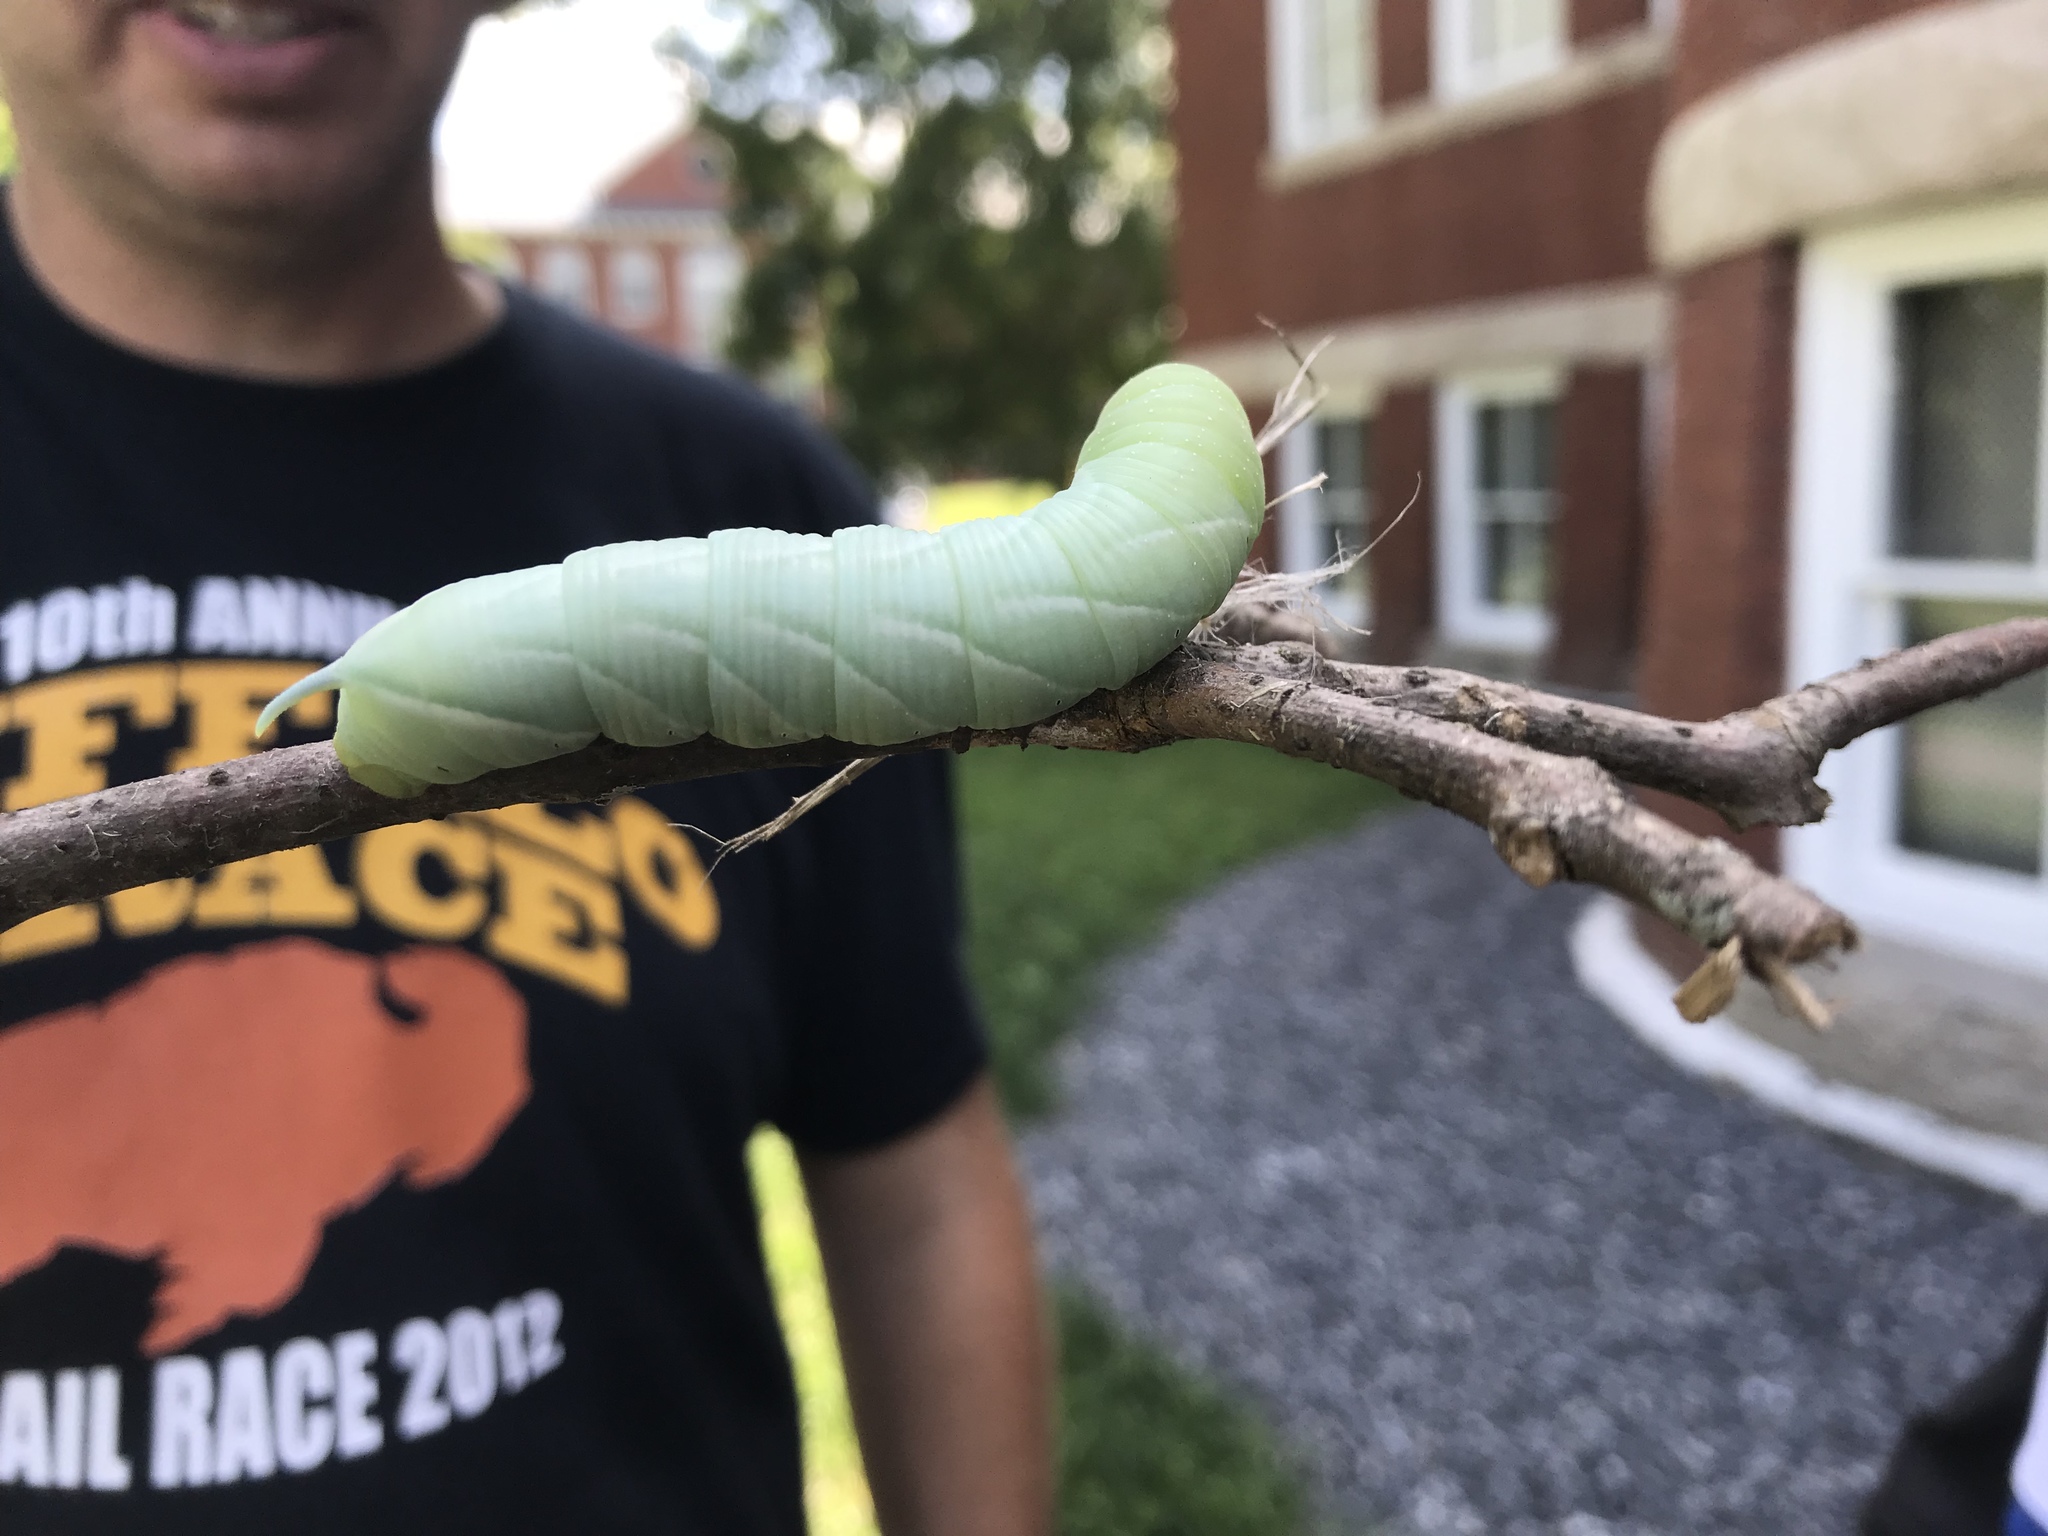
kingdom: Animalia
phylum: Arthropoda
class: Insecta
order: Lepidoptera
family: Sphingidae
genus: Sphinx
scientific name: Sphinx chersis
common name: Great ash sphinx
